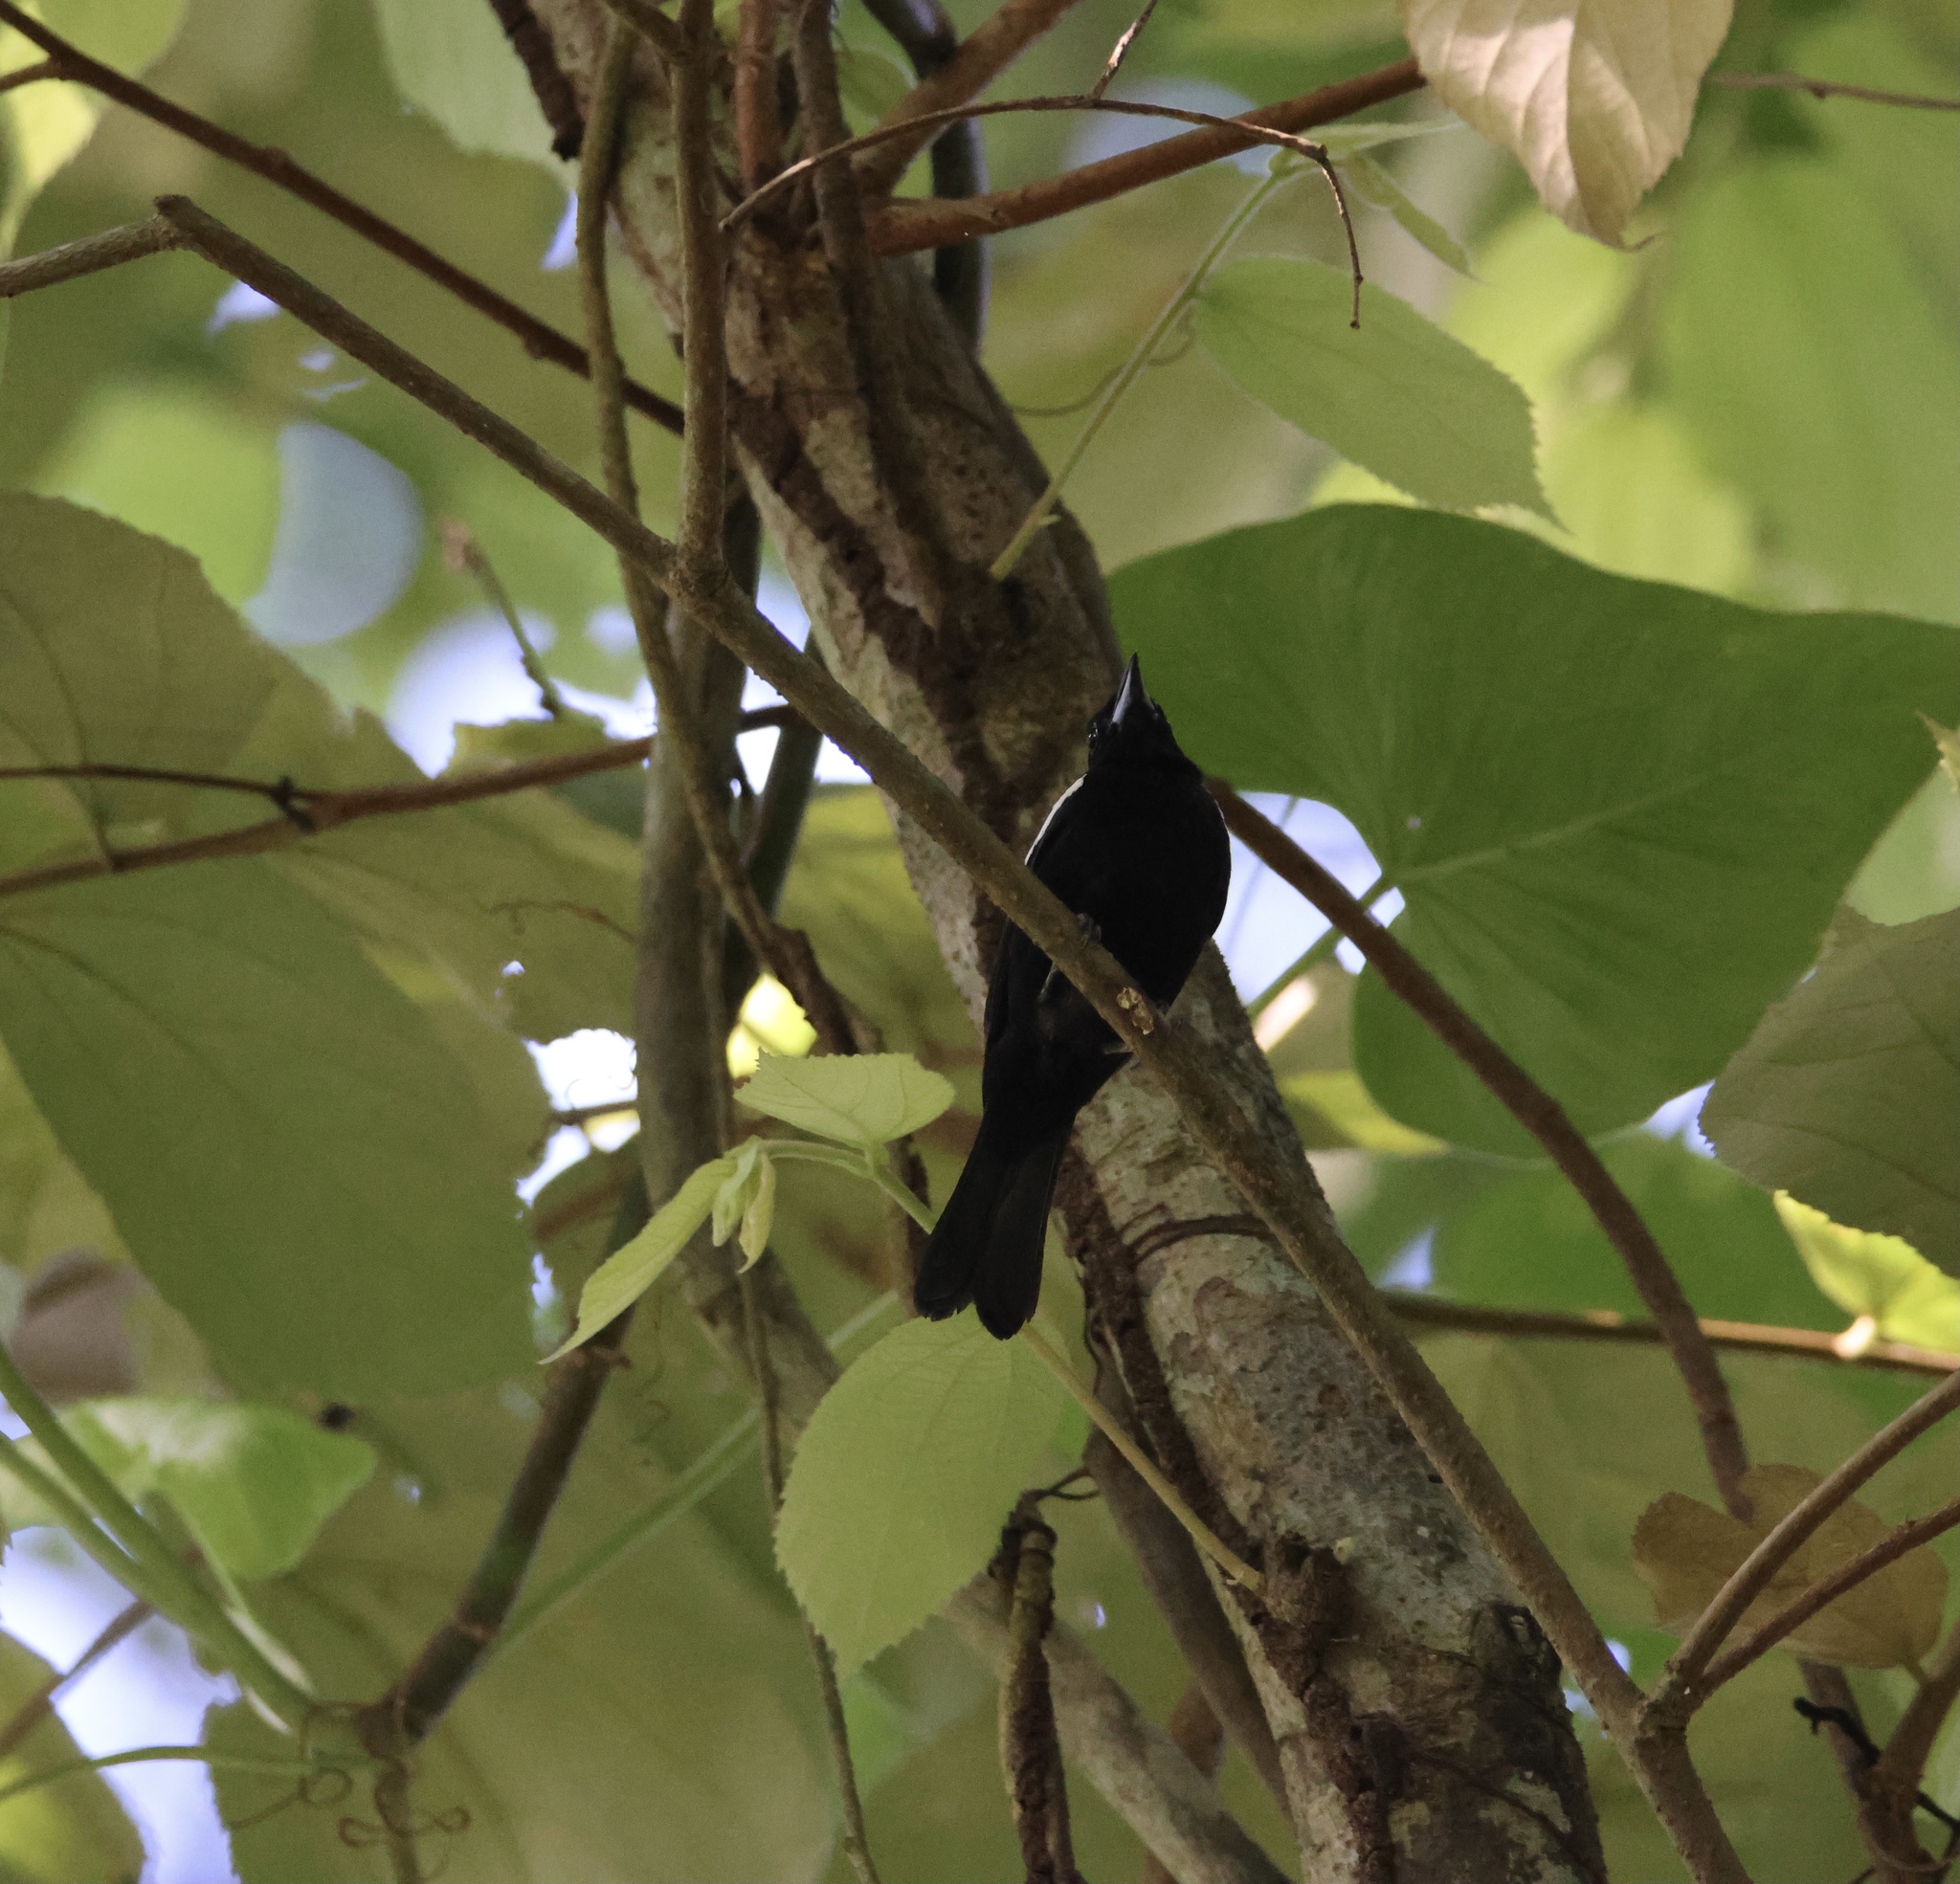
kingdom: Animalia
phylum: Chordata
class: Aves
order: Passeriformes
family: Thraupidae
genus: Loriotus
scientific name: Loriotus luctuosus
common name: White-shouldered tanager
